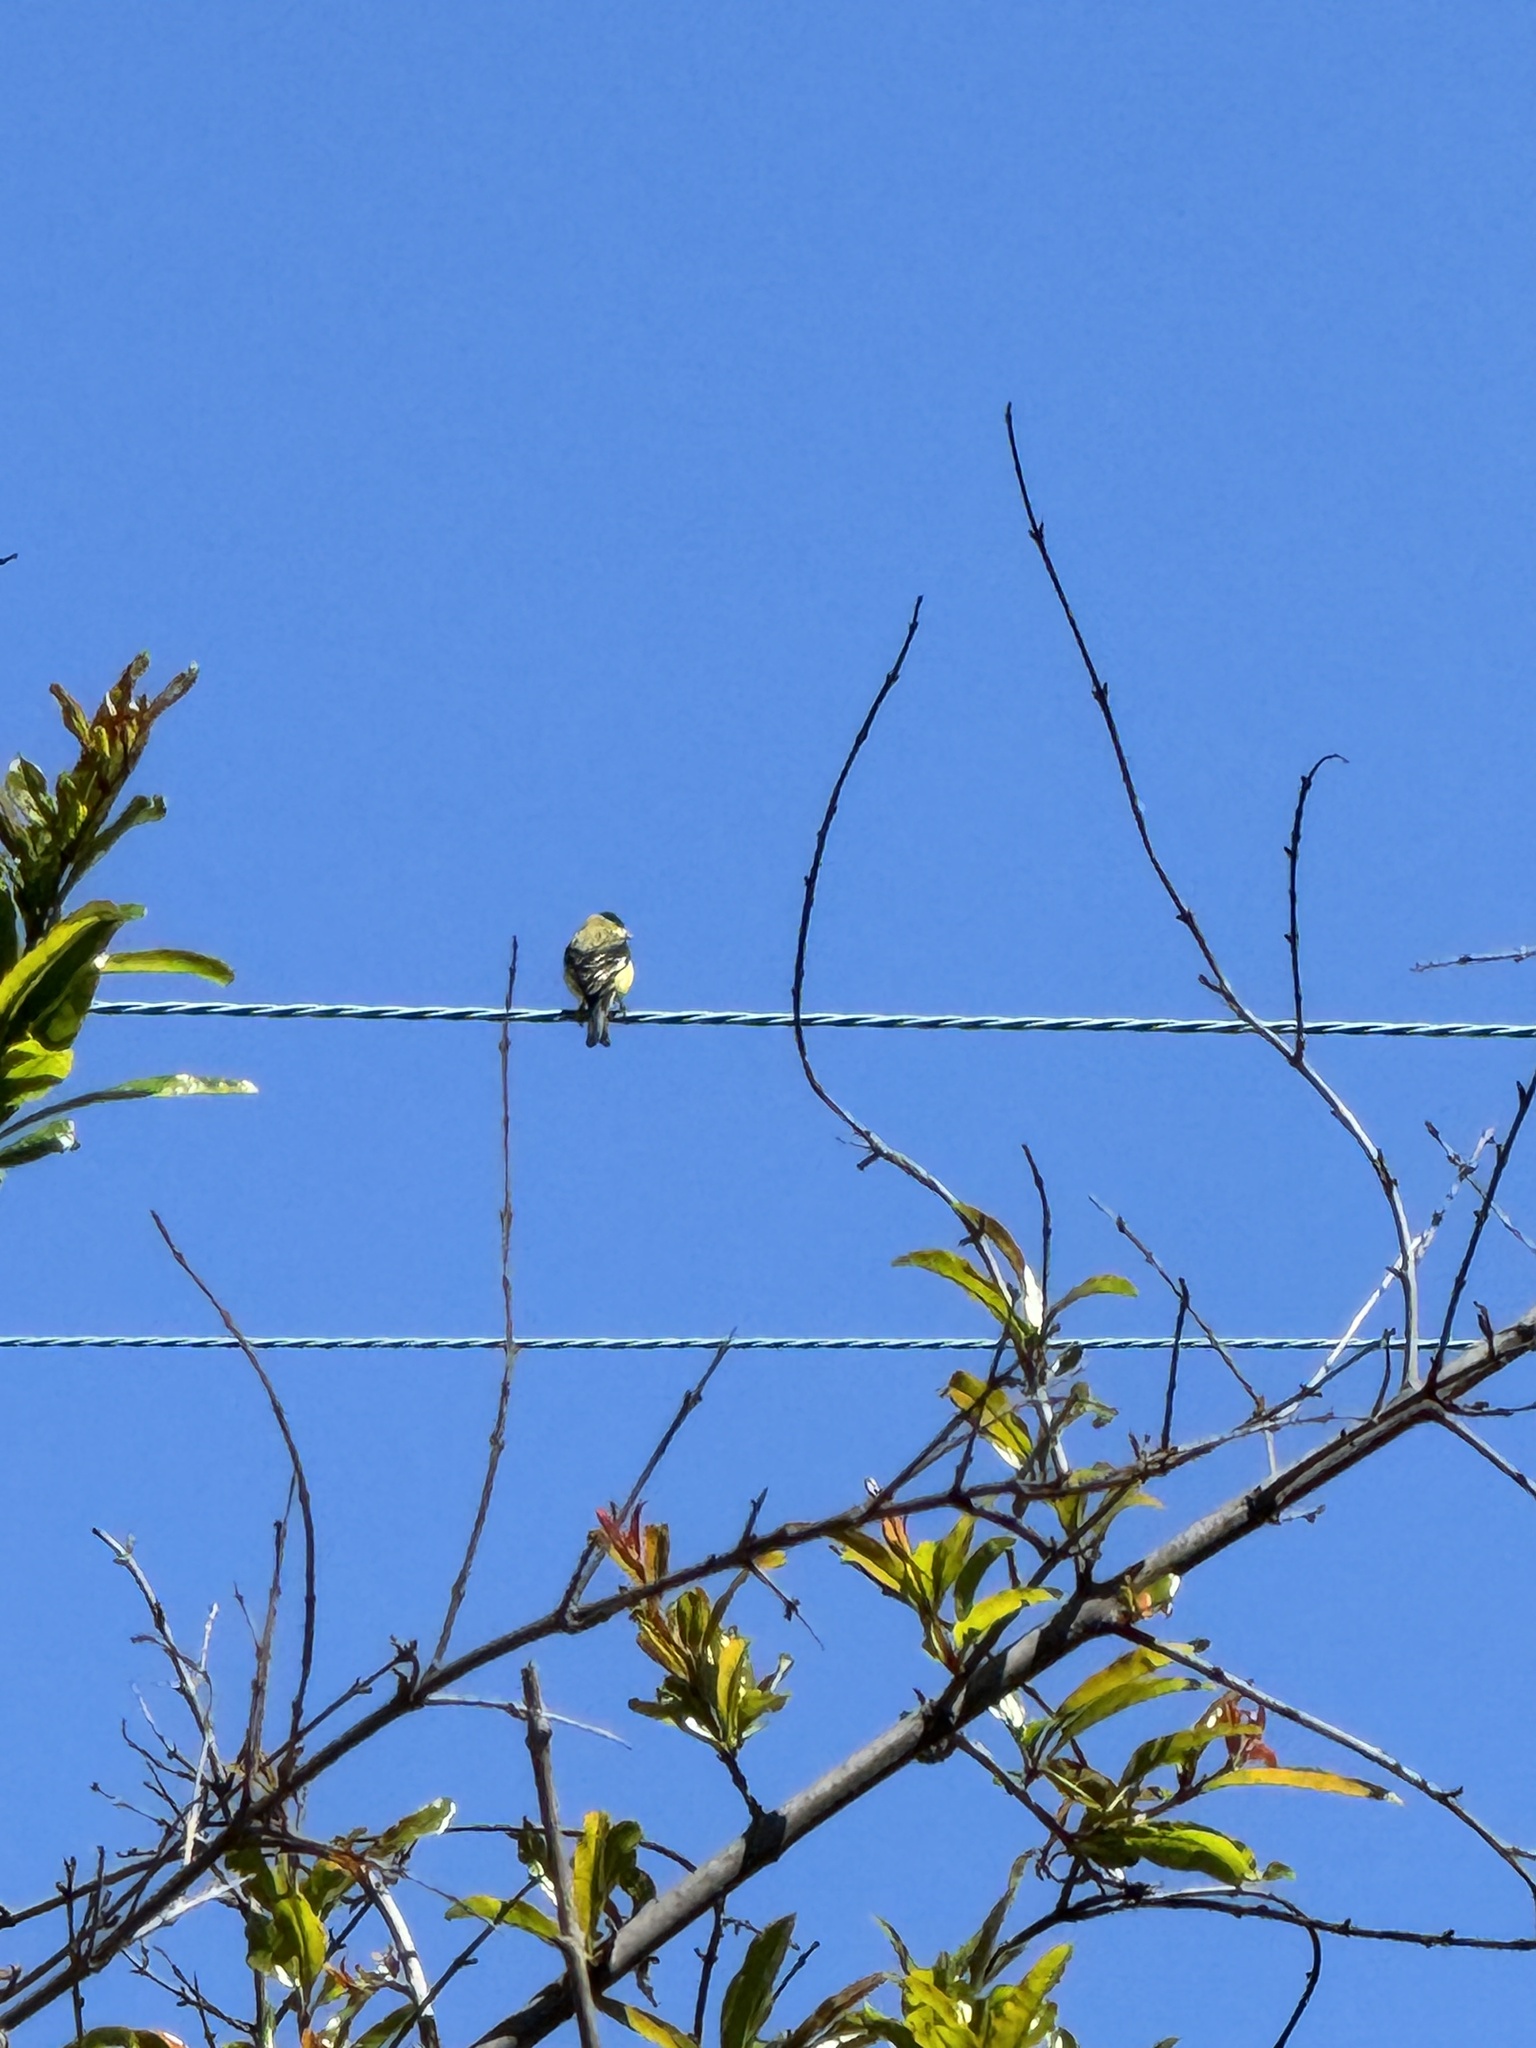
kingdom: Animalia
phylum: Chordata
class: Aves
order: Passeriformes
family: Fringillidae
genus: Spinus
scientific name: Spinus psaltria
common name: Lesser goldfinch
